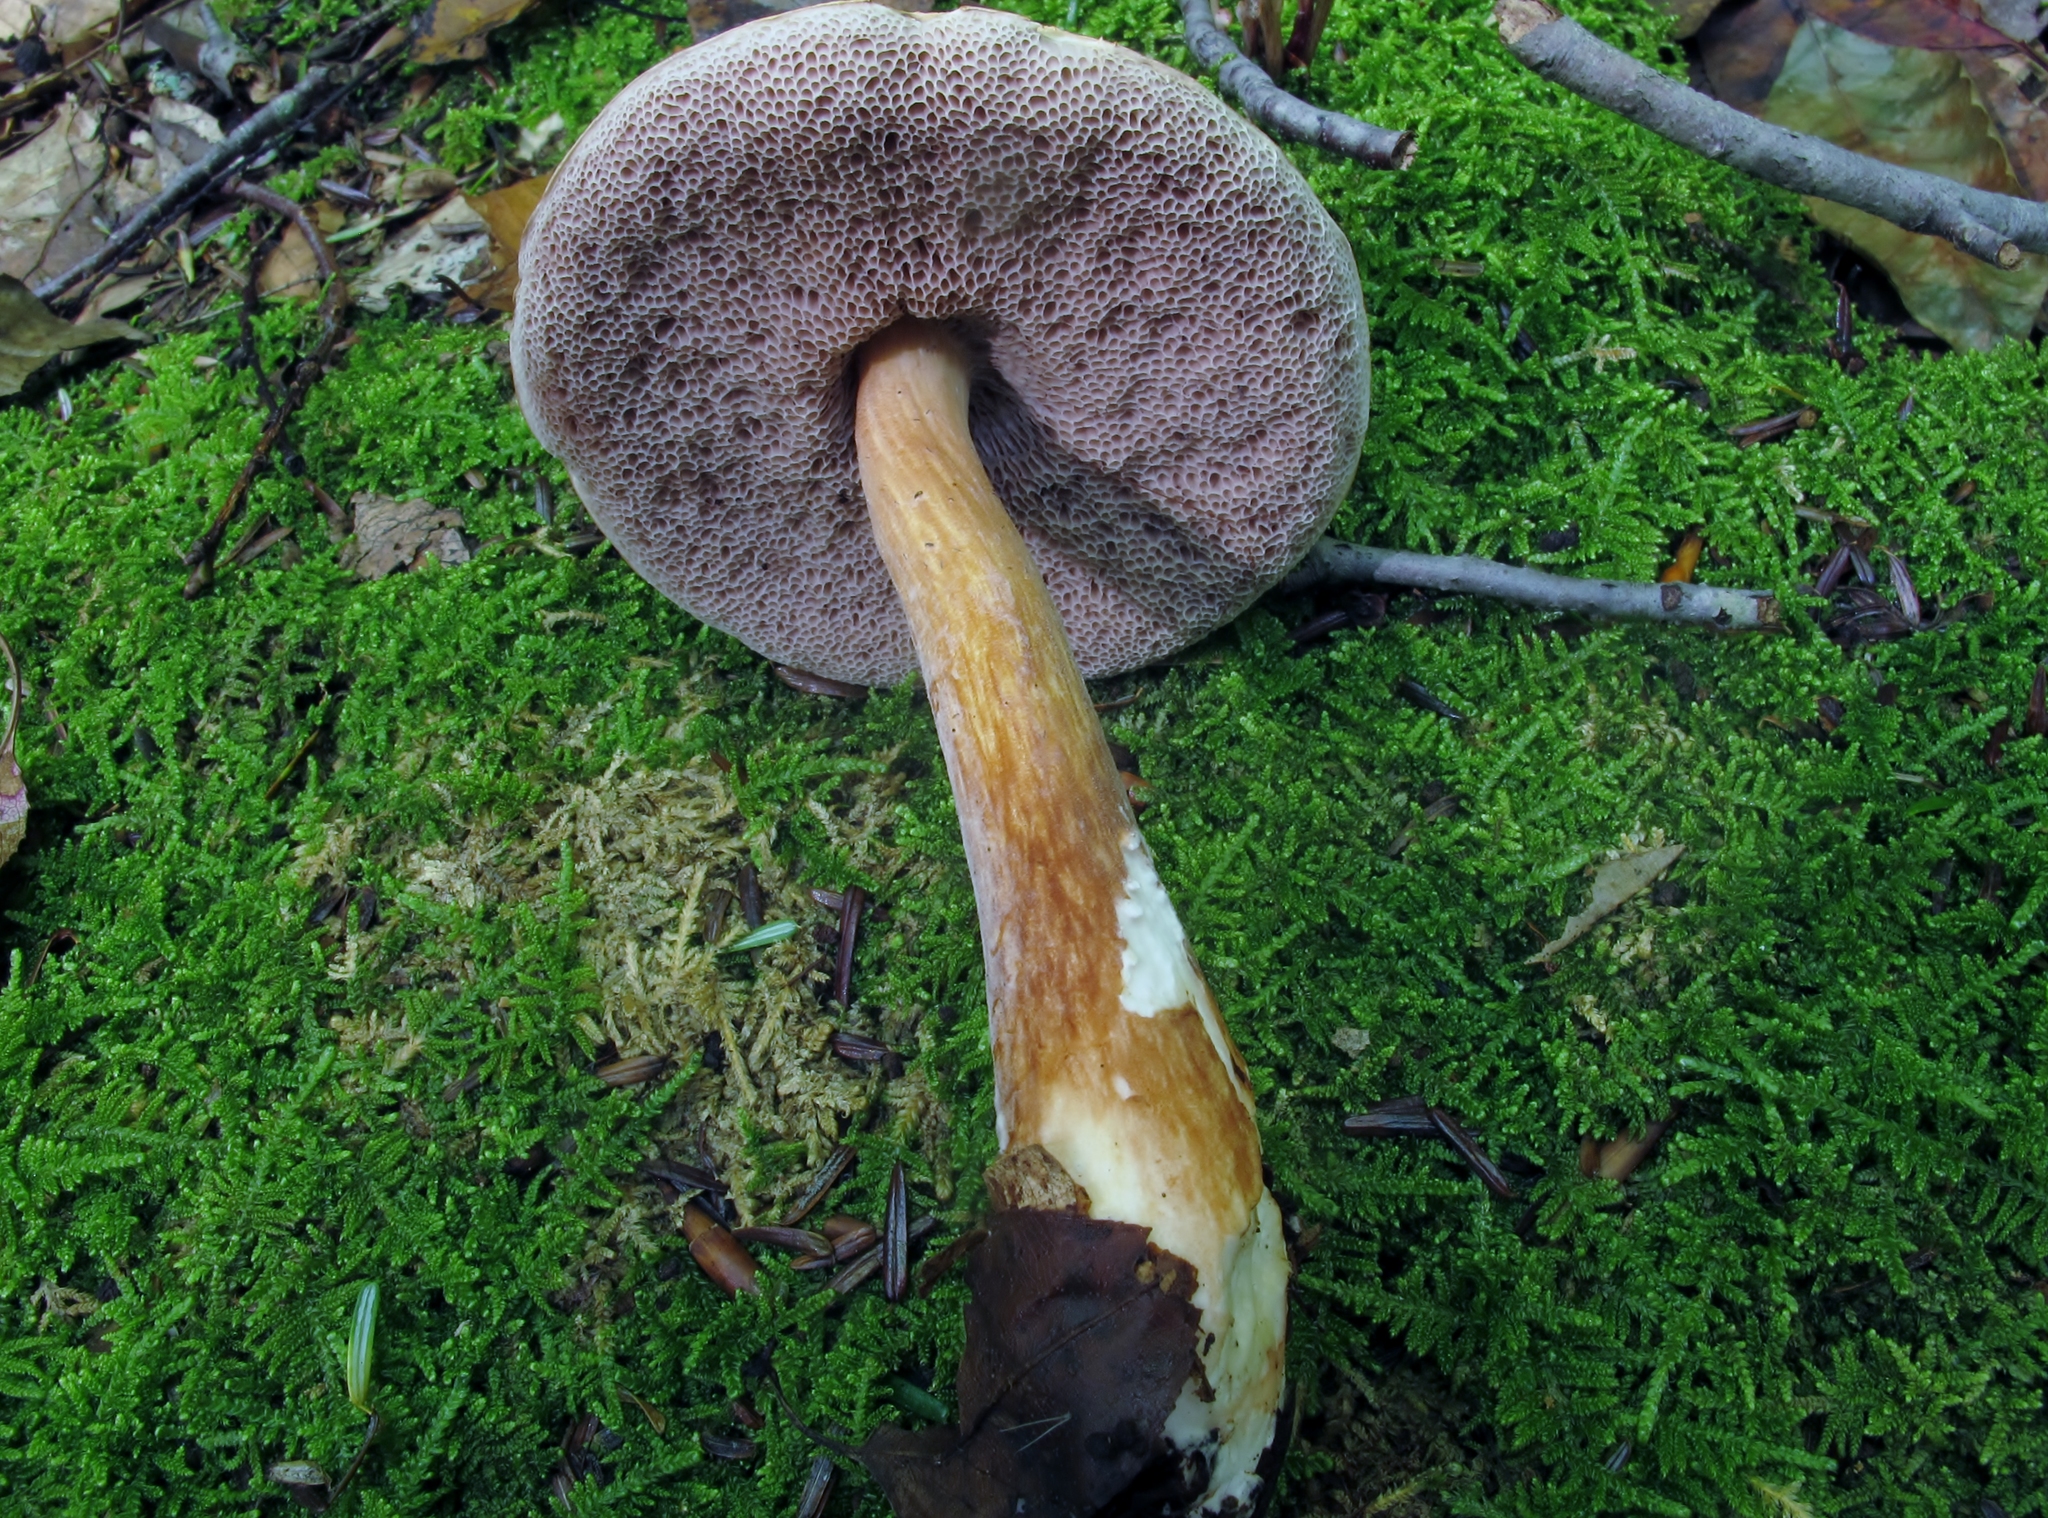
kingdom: Fungi
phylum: Basidiomycota
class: Agaricomycetes
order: Boletales
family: Boletaceae
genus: Austroboletus
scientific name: Austroboletus gracilis
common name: Graceful bolete
